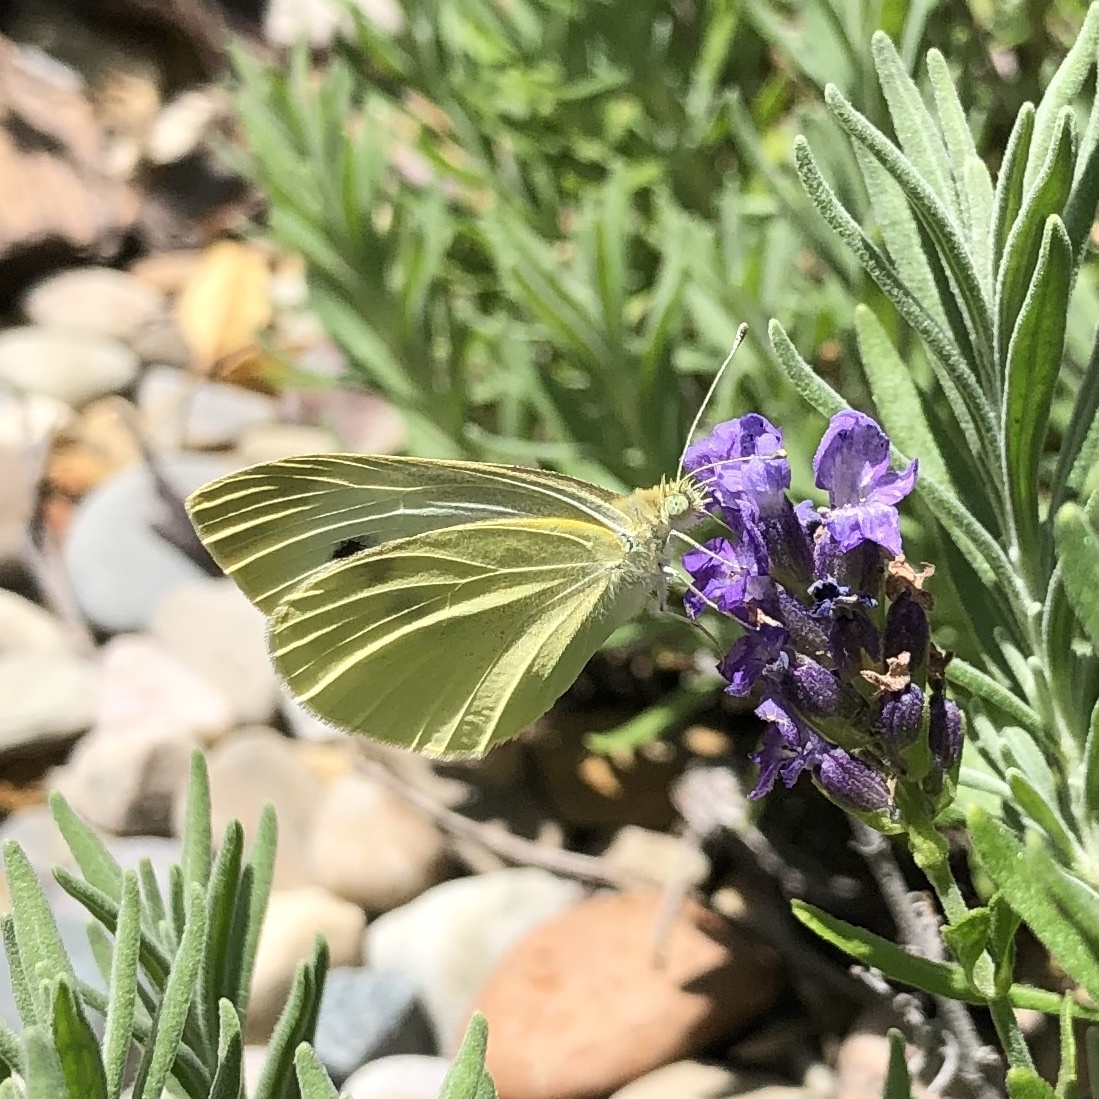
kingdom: Animalia
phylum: Arthropoda
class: Insecta
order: Lepidoptera
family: Pieridae
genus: Pieris
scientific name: Pieris rapae
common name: Small white
